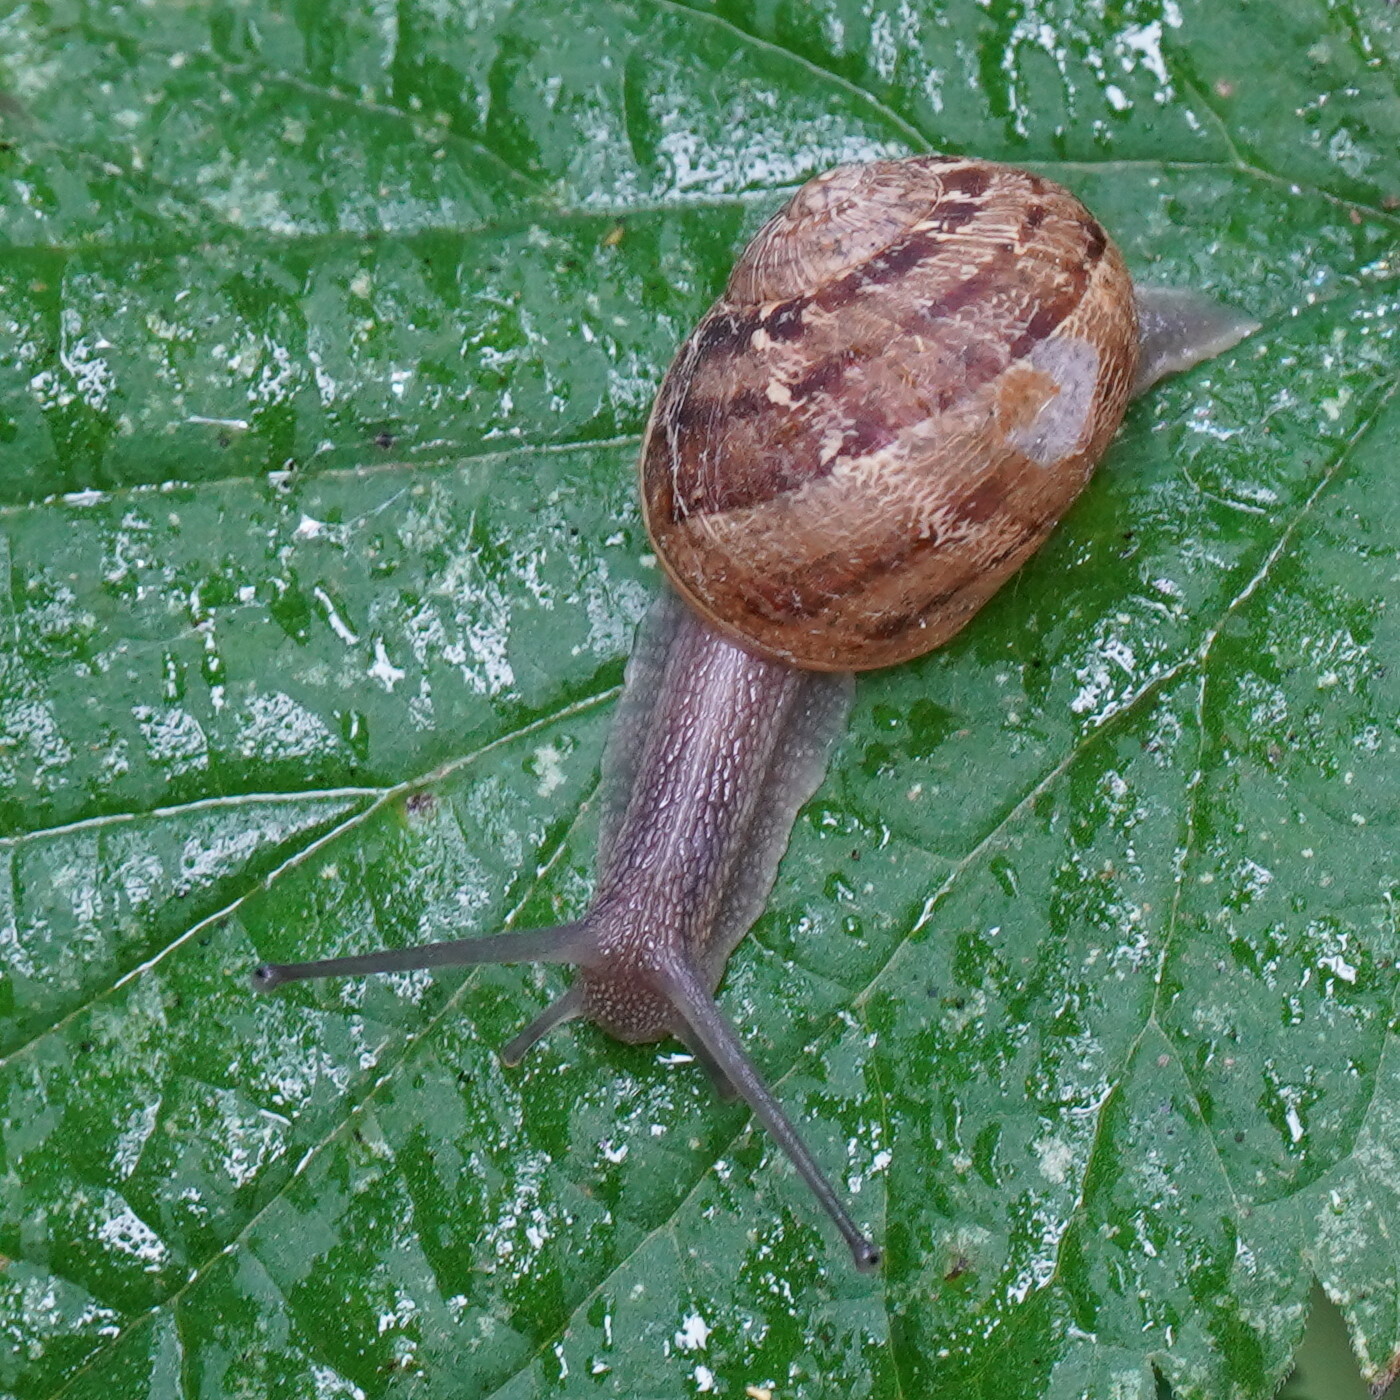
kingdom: Animalia
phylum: Mollusca
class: Gastropoda
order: Stylommatophora
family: Helicidae
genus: Cornu
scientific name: Cornu aspersum
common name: Brown garden snail
